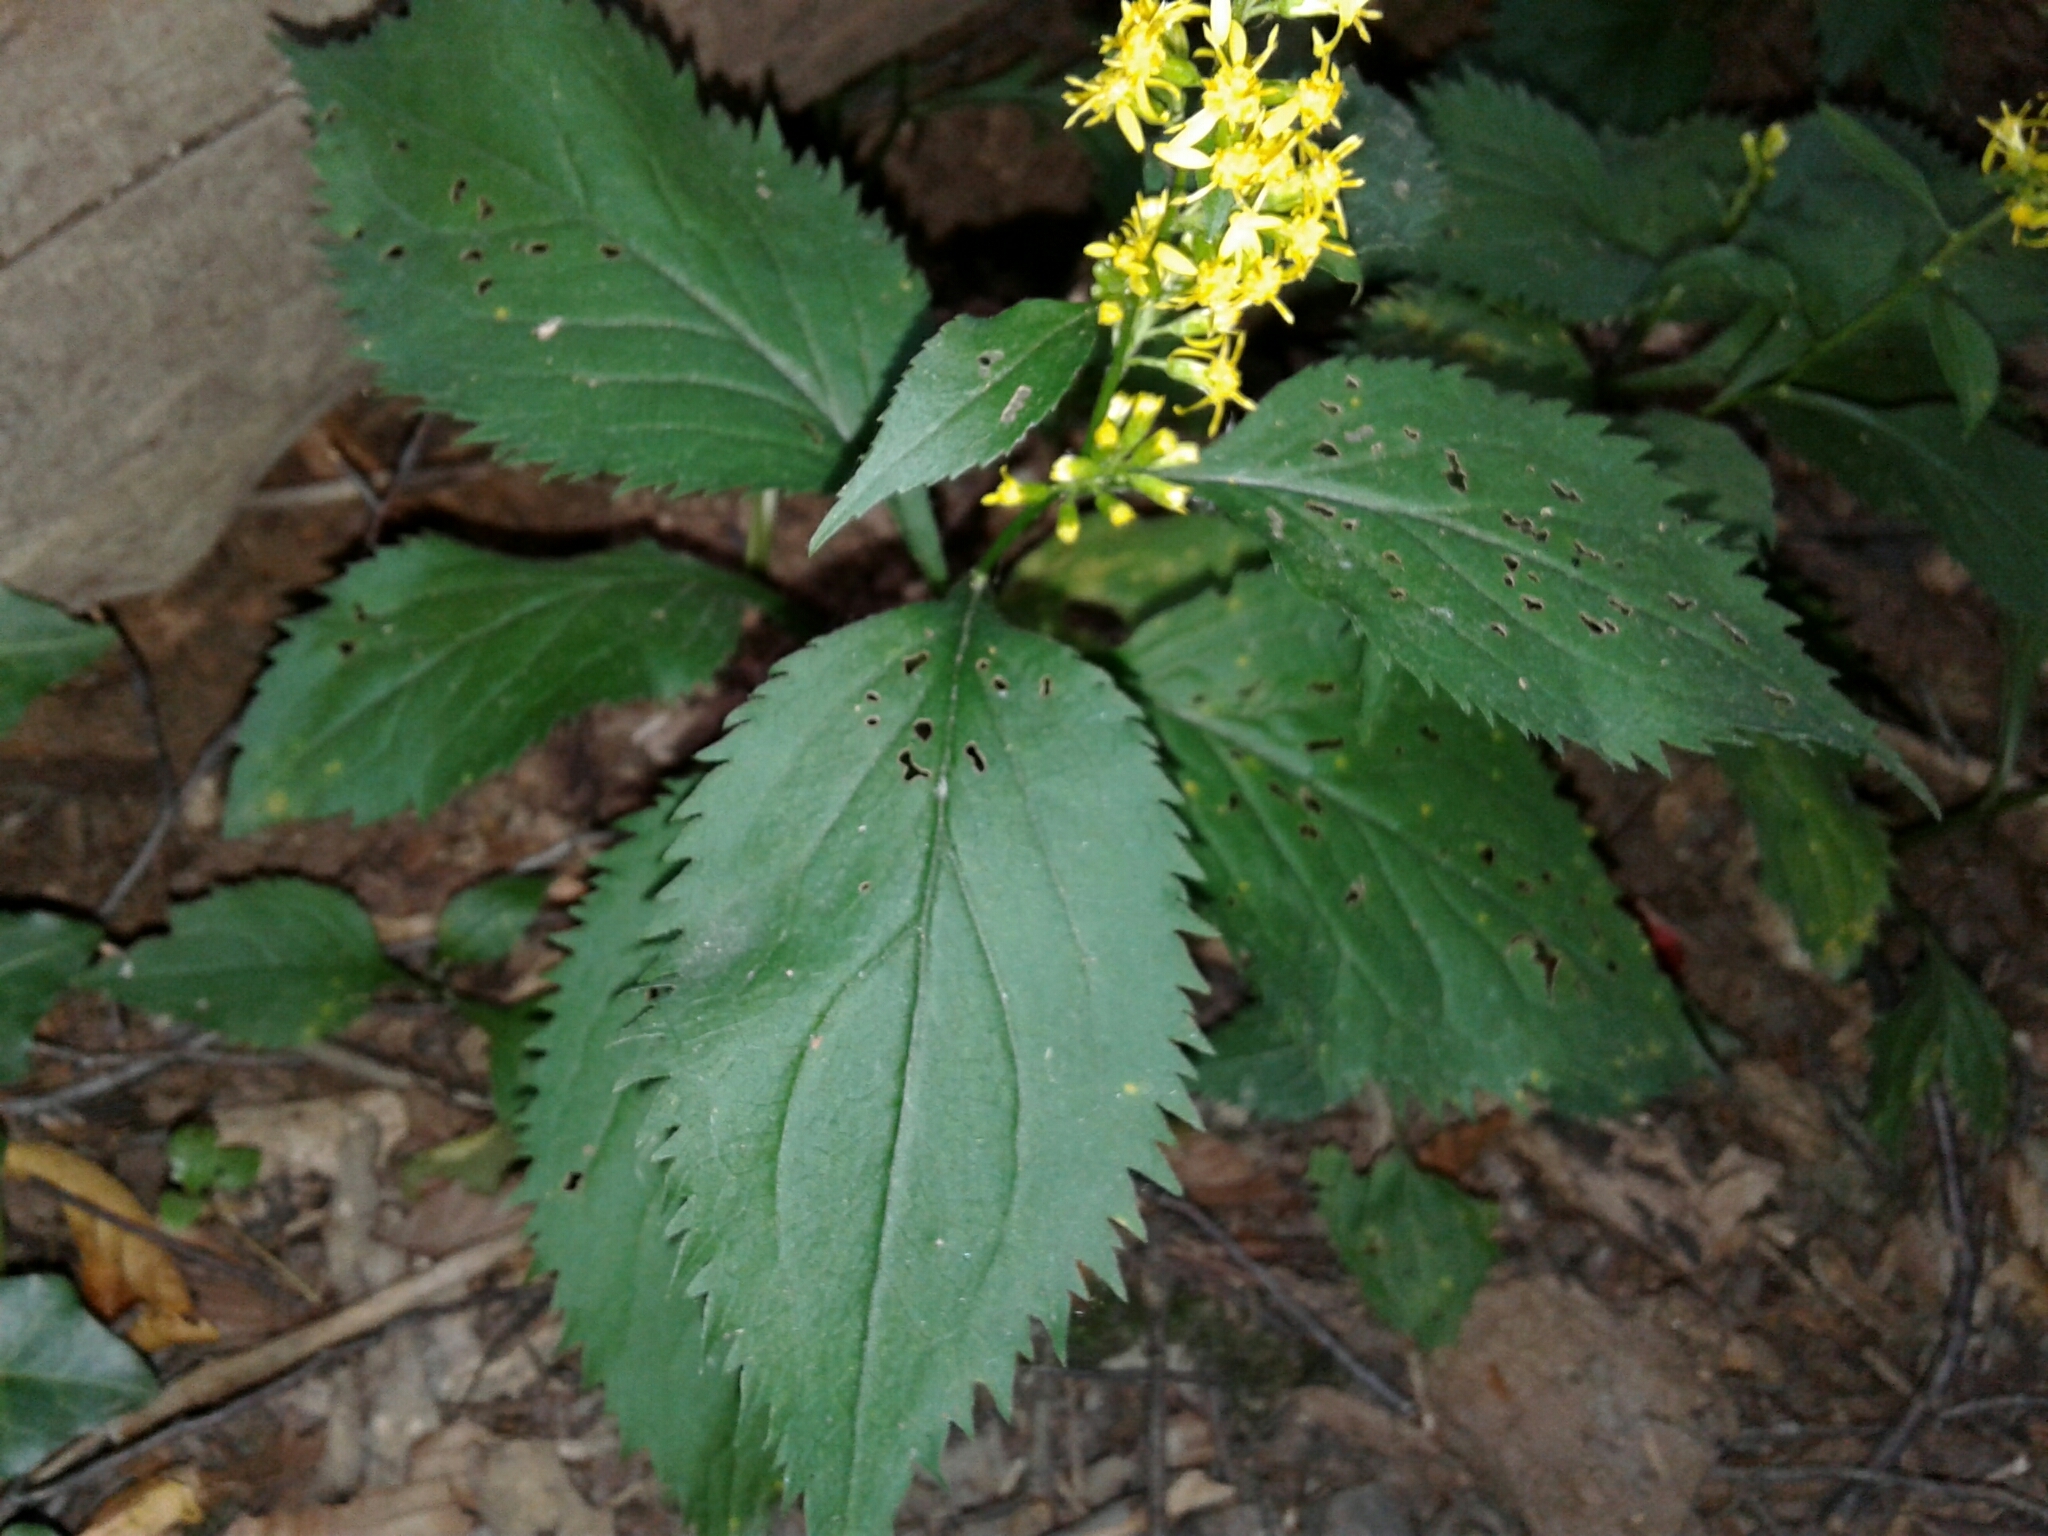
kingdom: Plantae
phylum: Tracheophyta
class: Magnoliopsida
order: Asterales
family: Asteraceae
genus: Solidago
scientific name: Solidago flexicaulis
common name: Zig-zag goldenrod
